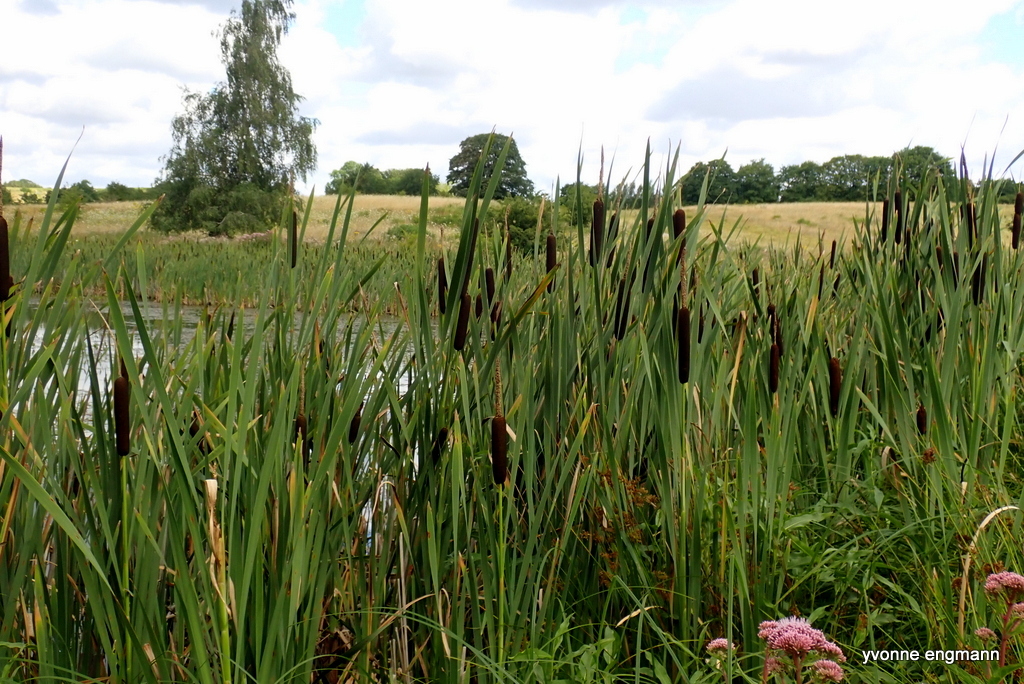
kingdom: Plantae
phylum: Tracheophyta
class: Liliopsida
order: Poales
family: Typhaceae
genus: Typha
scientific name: Typha latifolia
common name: Broadleaf cattail
